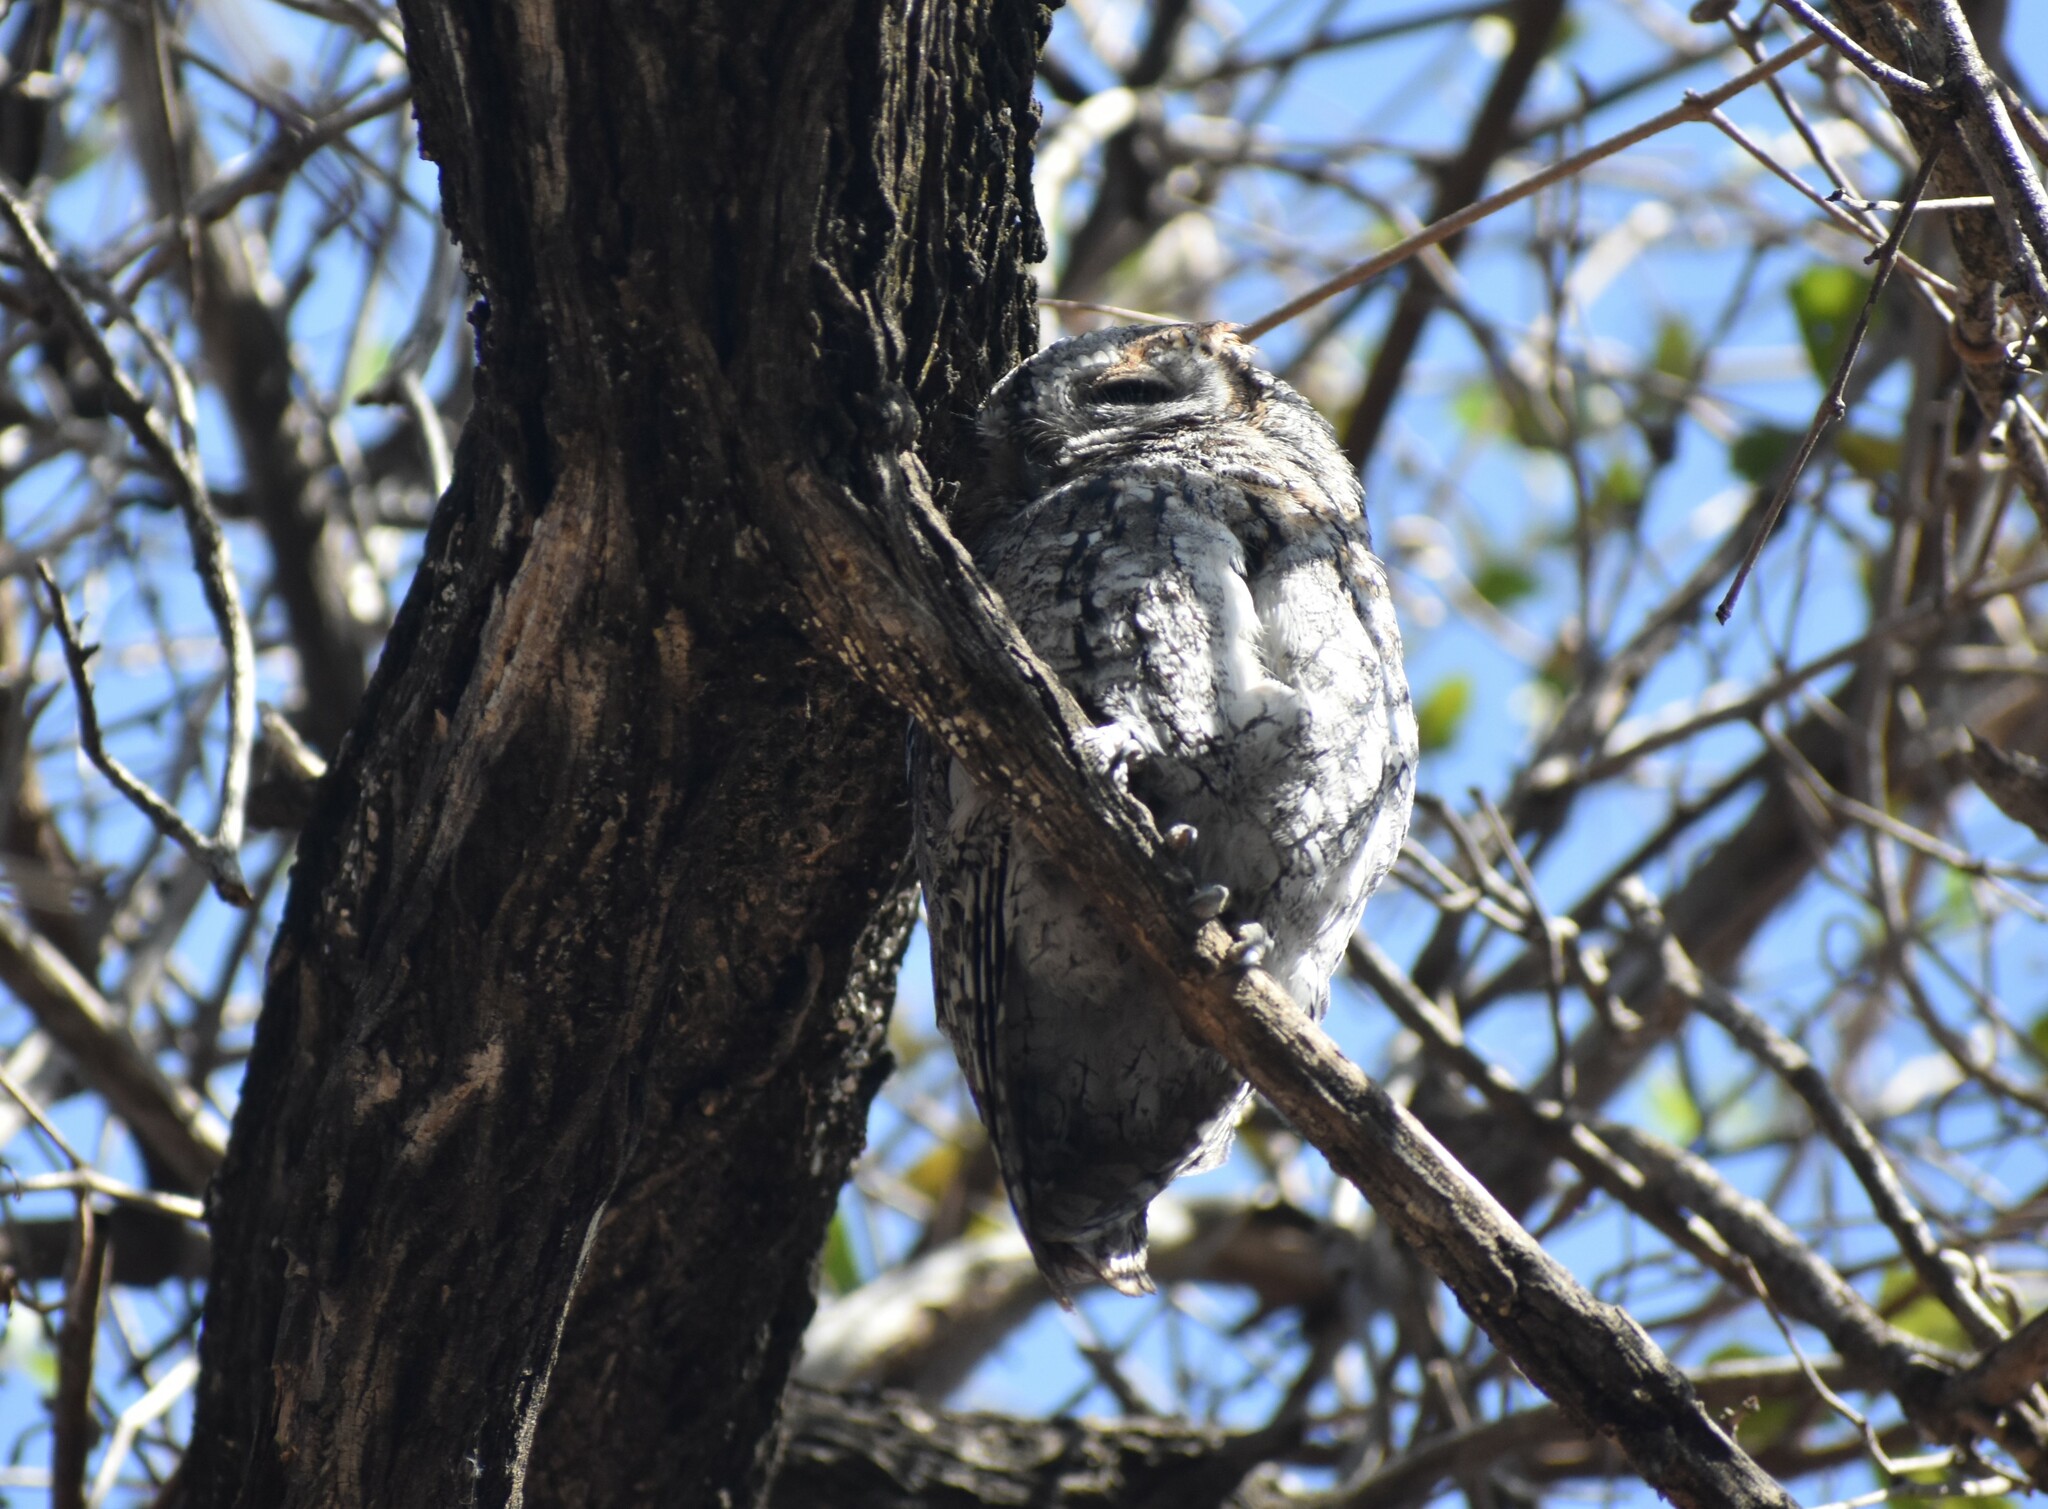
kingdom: Animalia
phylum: Chordata
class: Aves
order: Strigiformes
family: Strigidae
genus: Otus
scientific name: Otus senegalensis
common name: African scops owl
